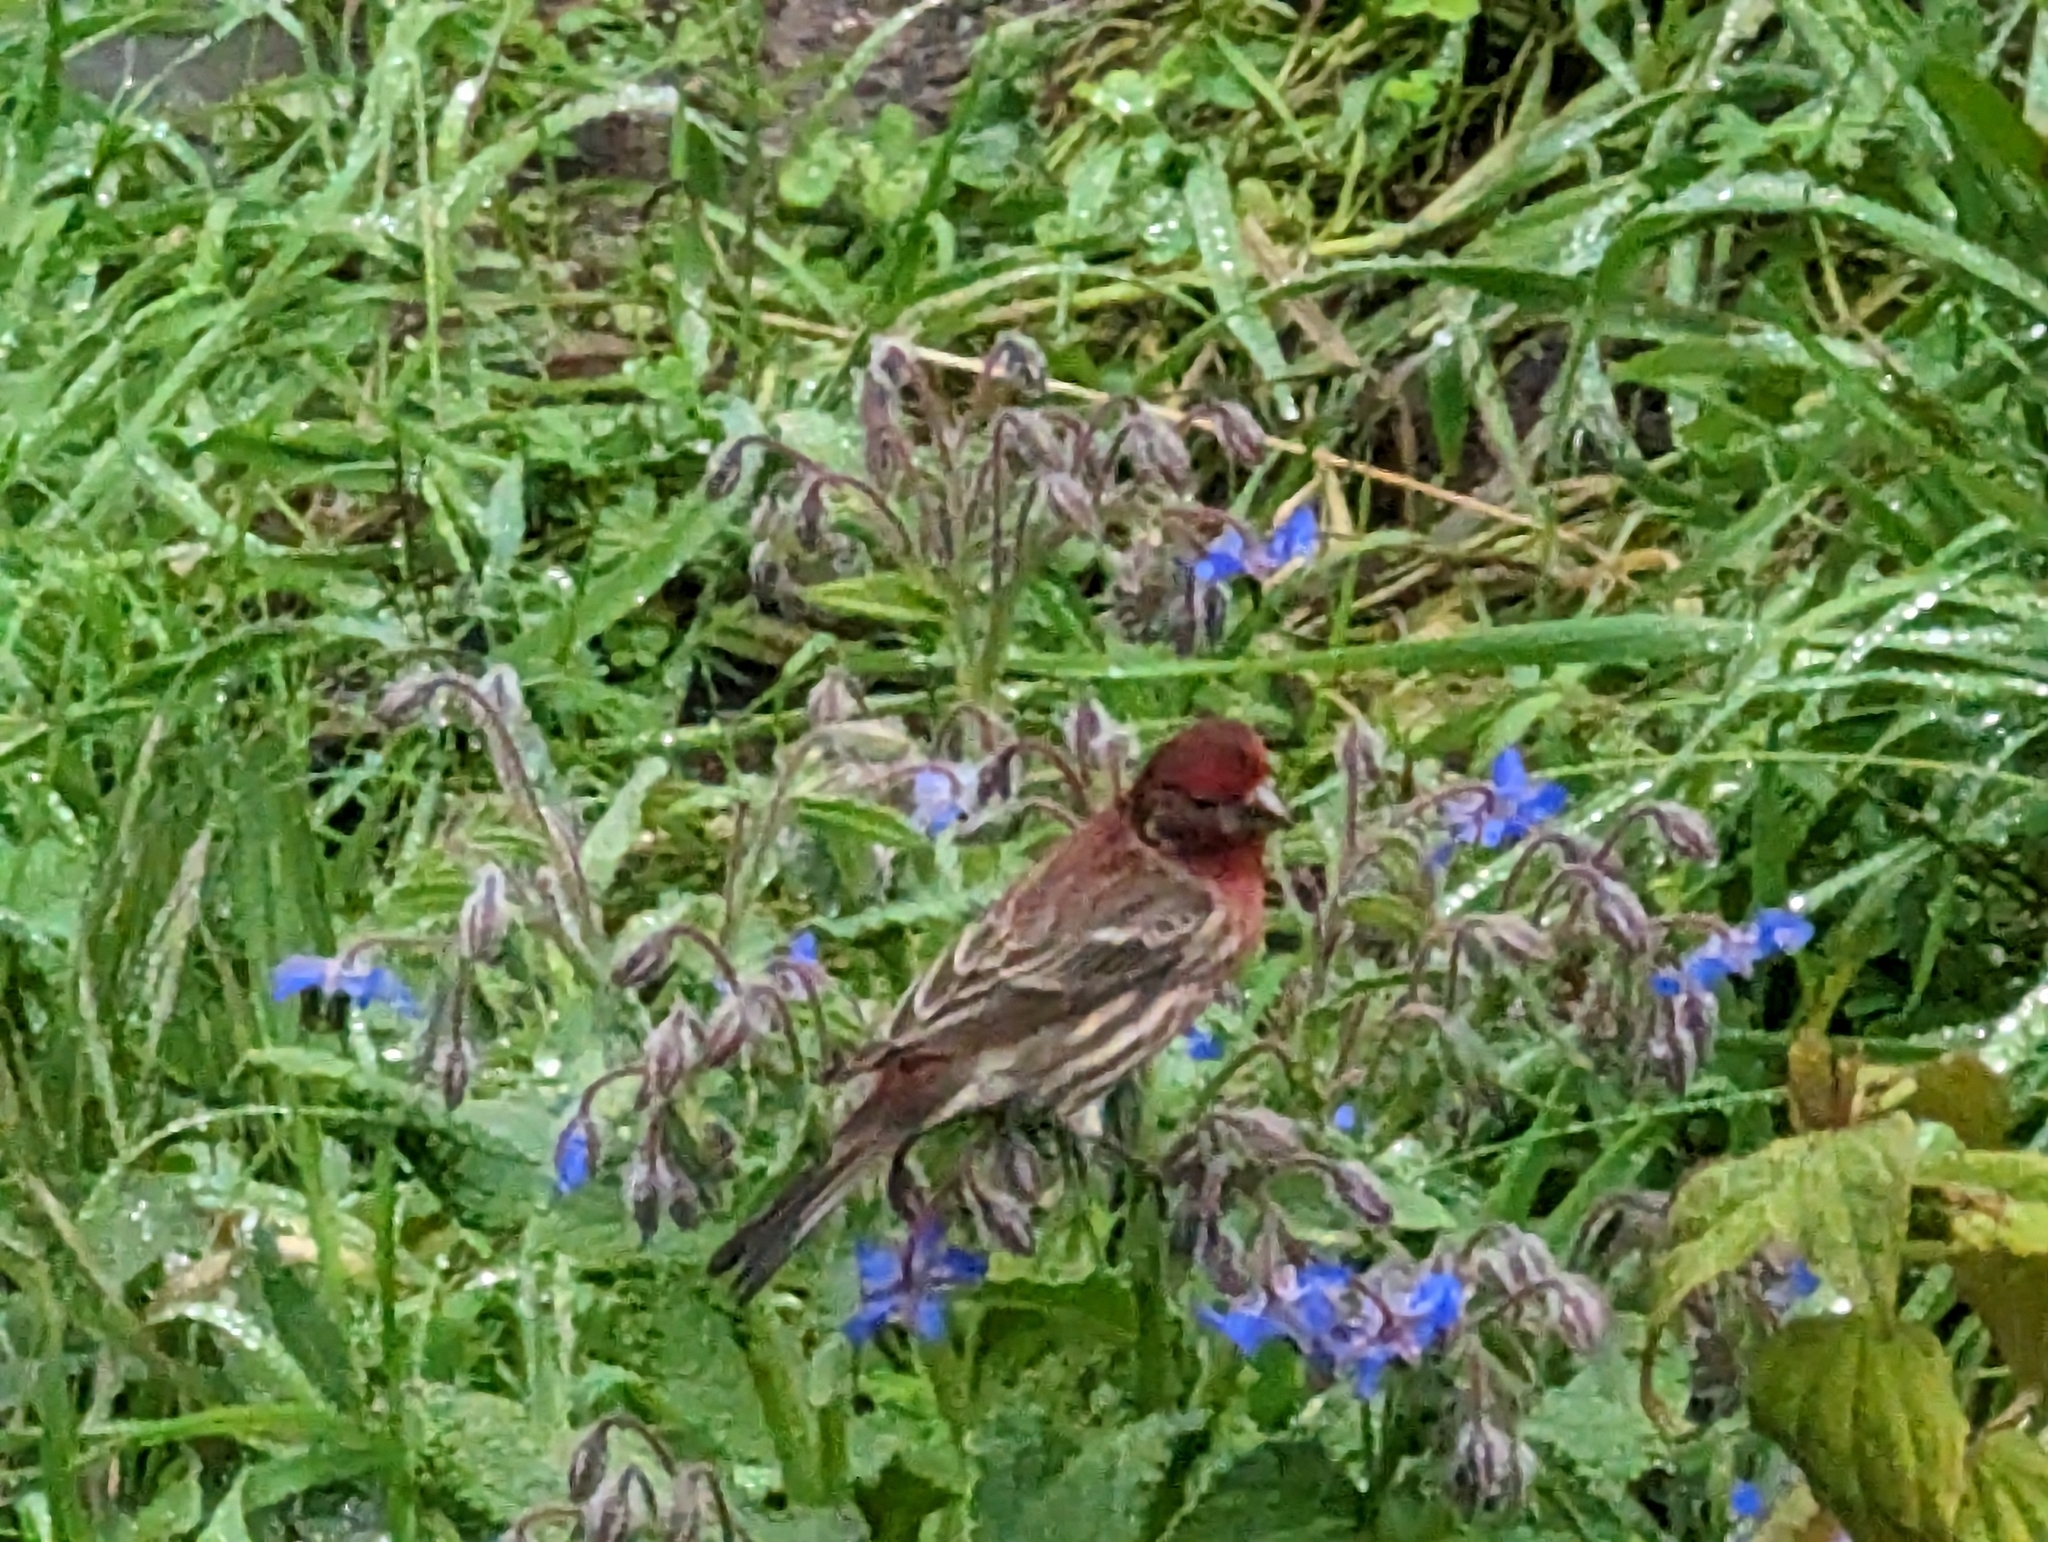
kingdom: Animalia
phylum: Chordata
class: Aves
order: Passeriformes
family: Fringillidae
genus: Haemorhous
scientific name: Haemorhous mexicanus
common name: House finch
